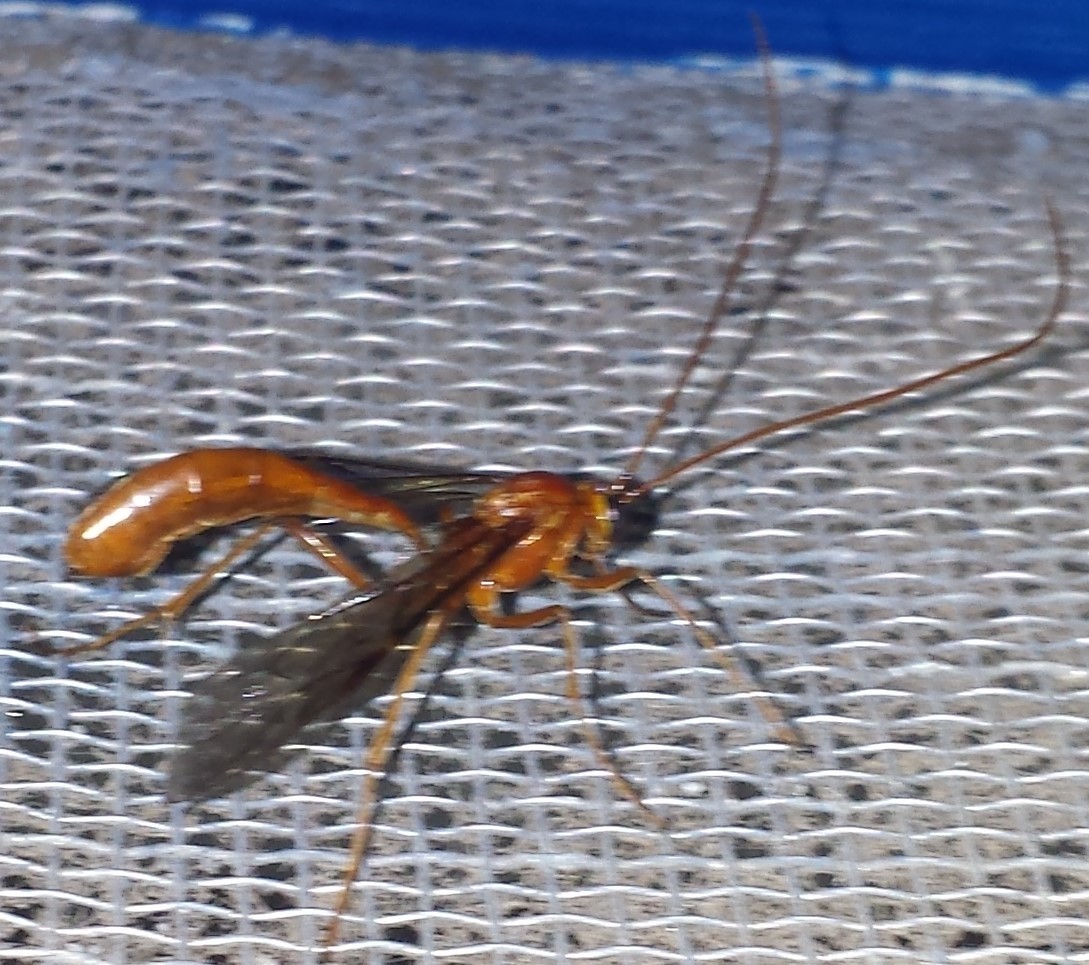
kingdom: Animalia
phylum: Arthropoda
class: Insecta
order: Hymenoptera
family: Ichneumonidae
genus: Ophion
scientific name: Ophion
